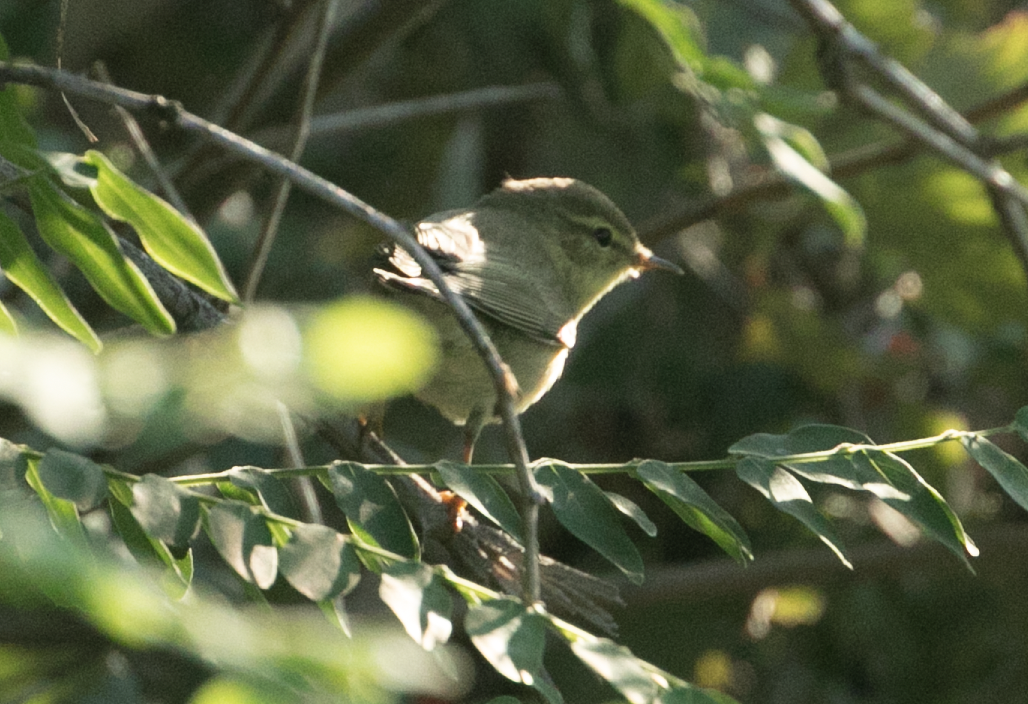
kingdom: Animalia
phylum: Chordata
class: Aves
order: Passeriformes
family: Phylloscopidae
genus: Phylloscopus
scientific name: Phylloscopus trochilus
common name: Willow warbler
